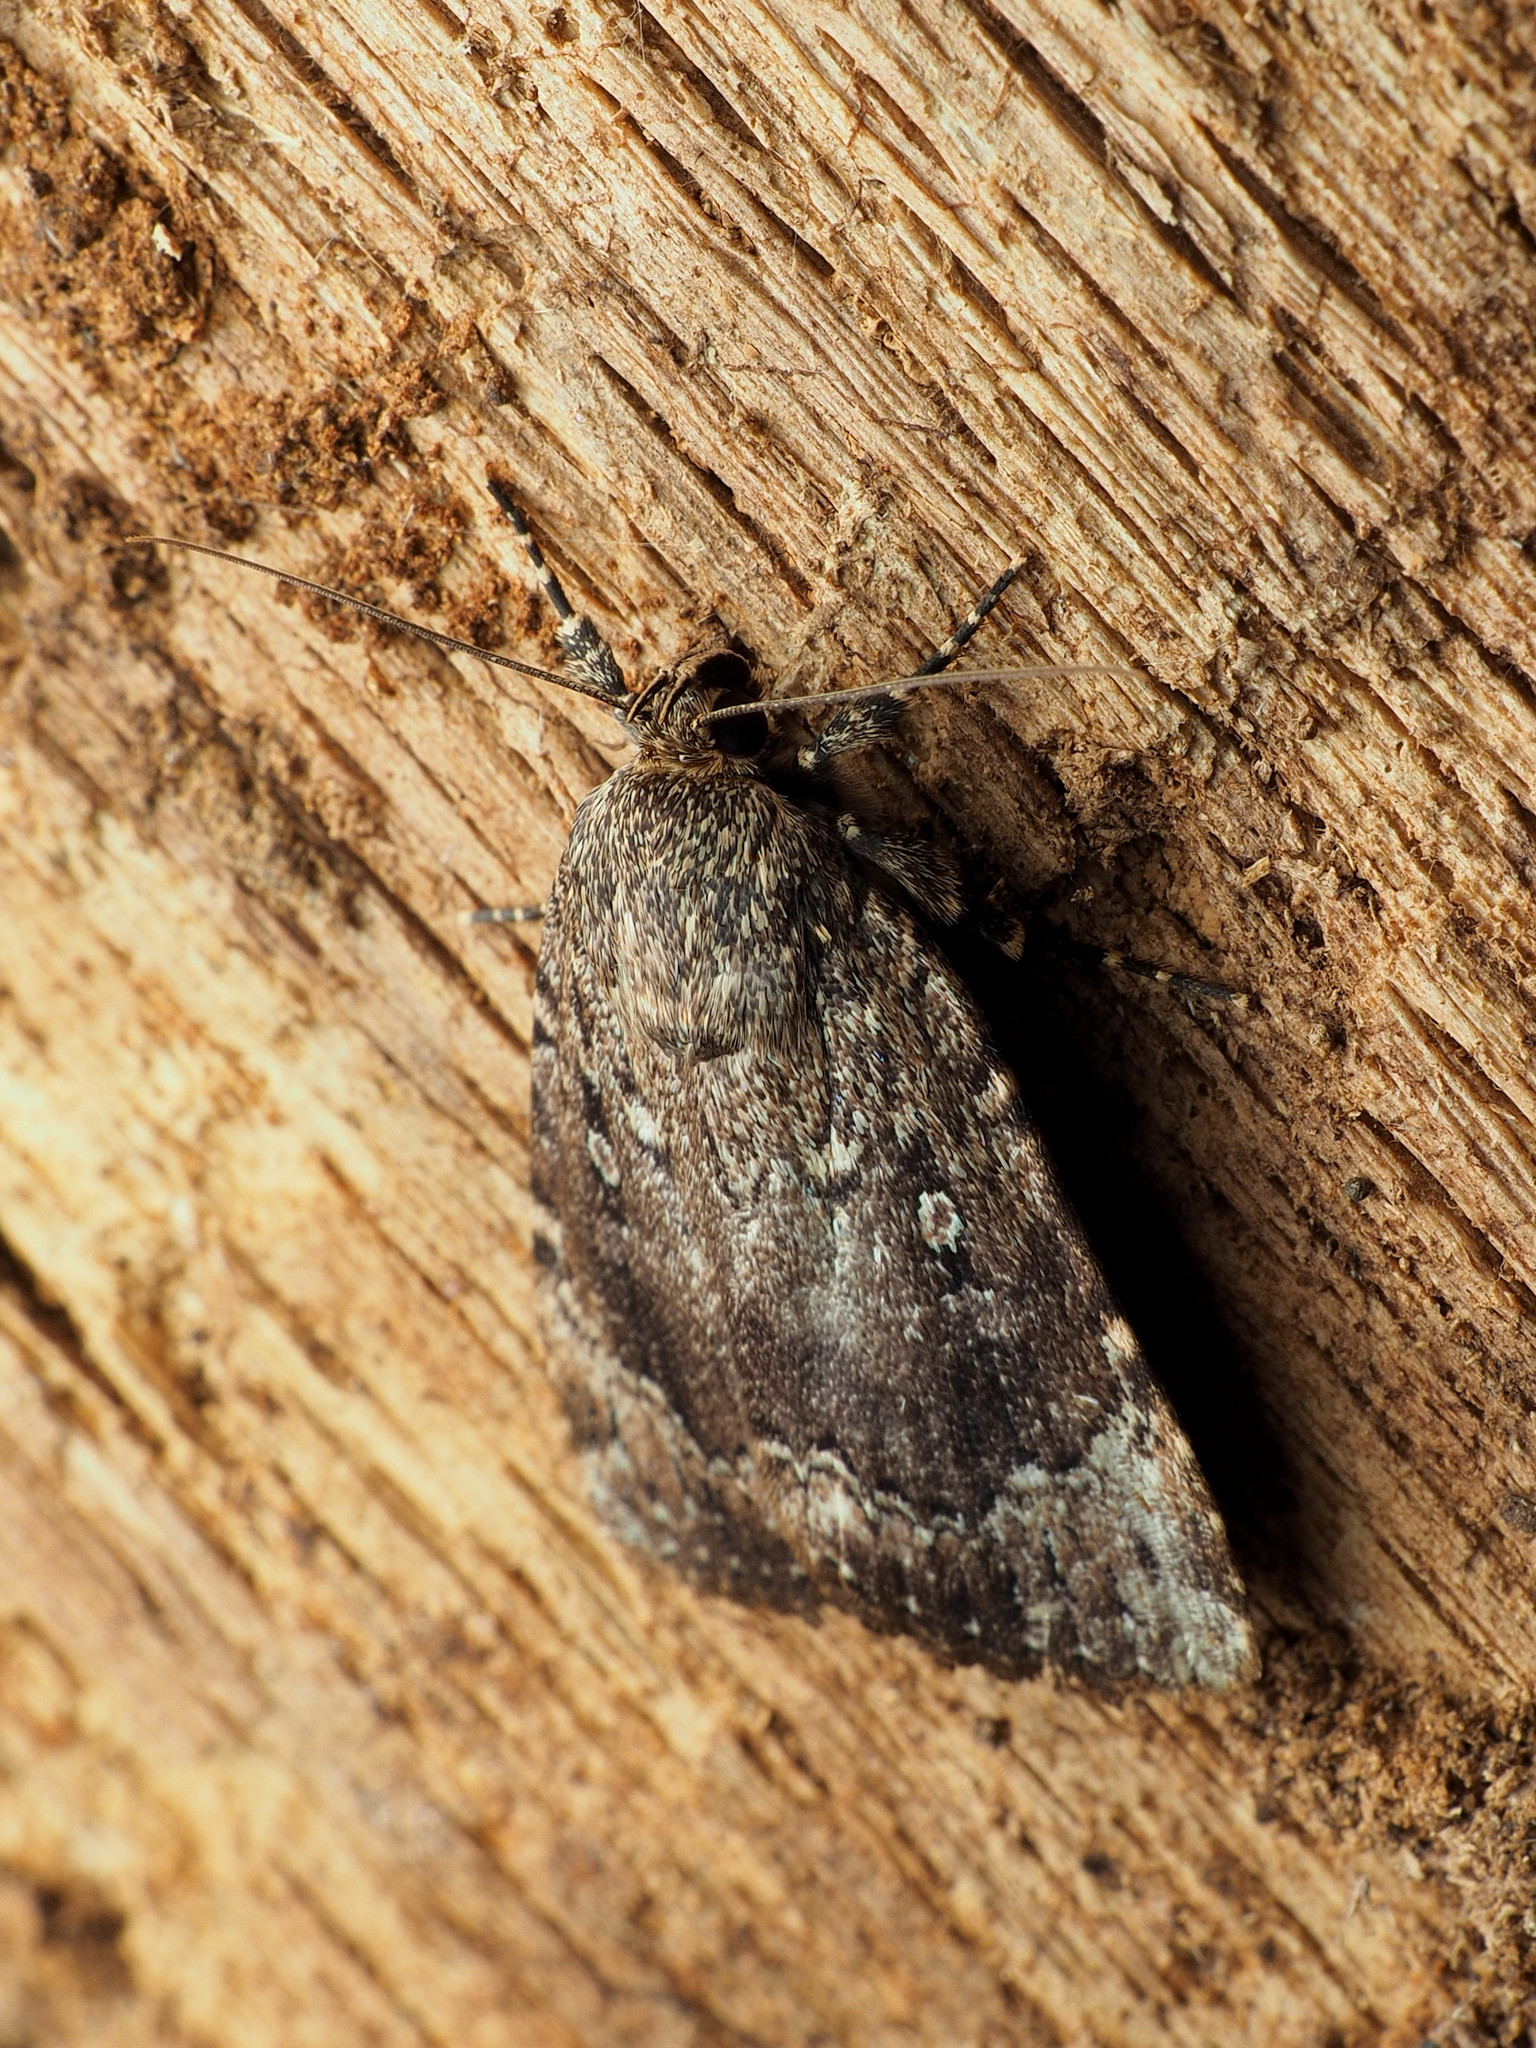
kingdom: Animalia
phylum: Arthropoda
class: Insecta
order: Lepidoptera
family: Noctuidae
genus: Amphipyra
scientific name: Amphipyra pyramidoides
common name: American copper underwing
